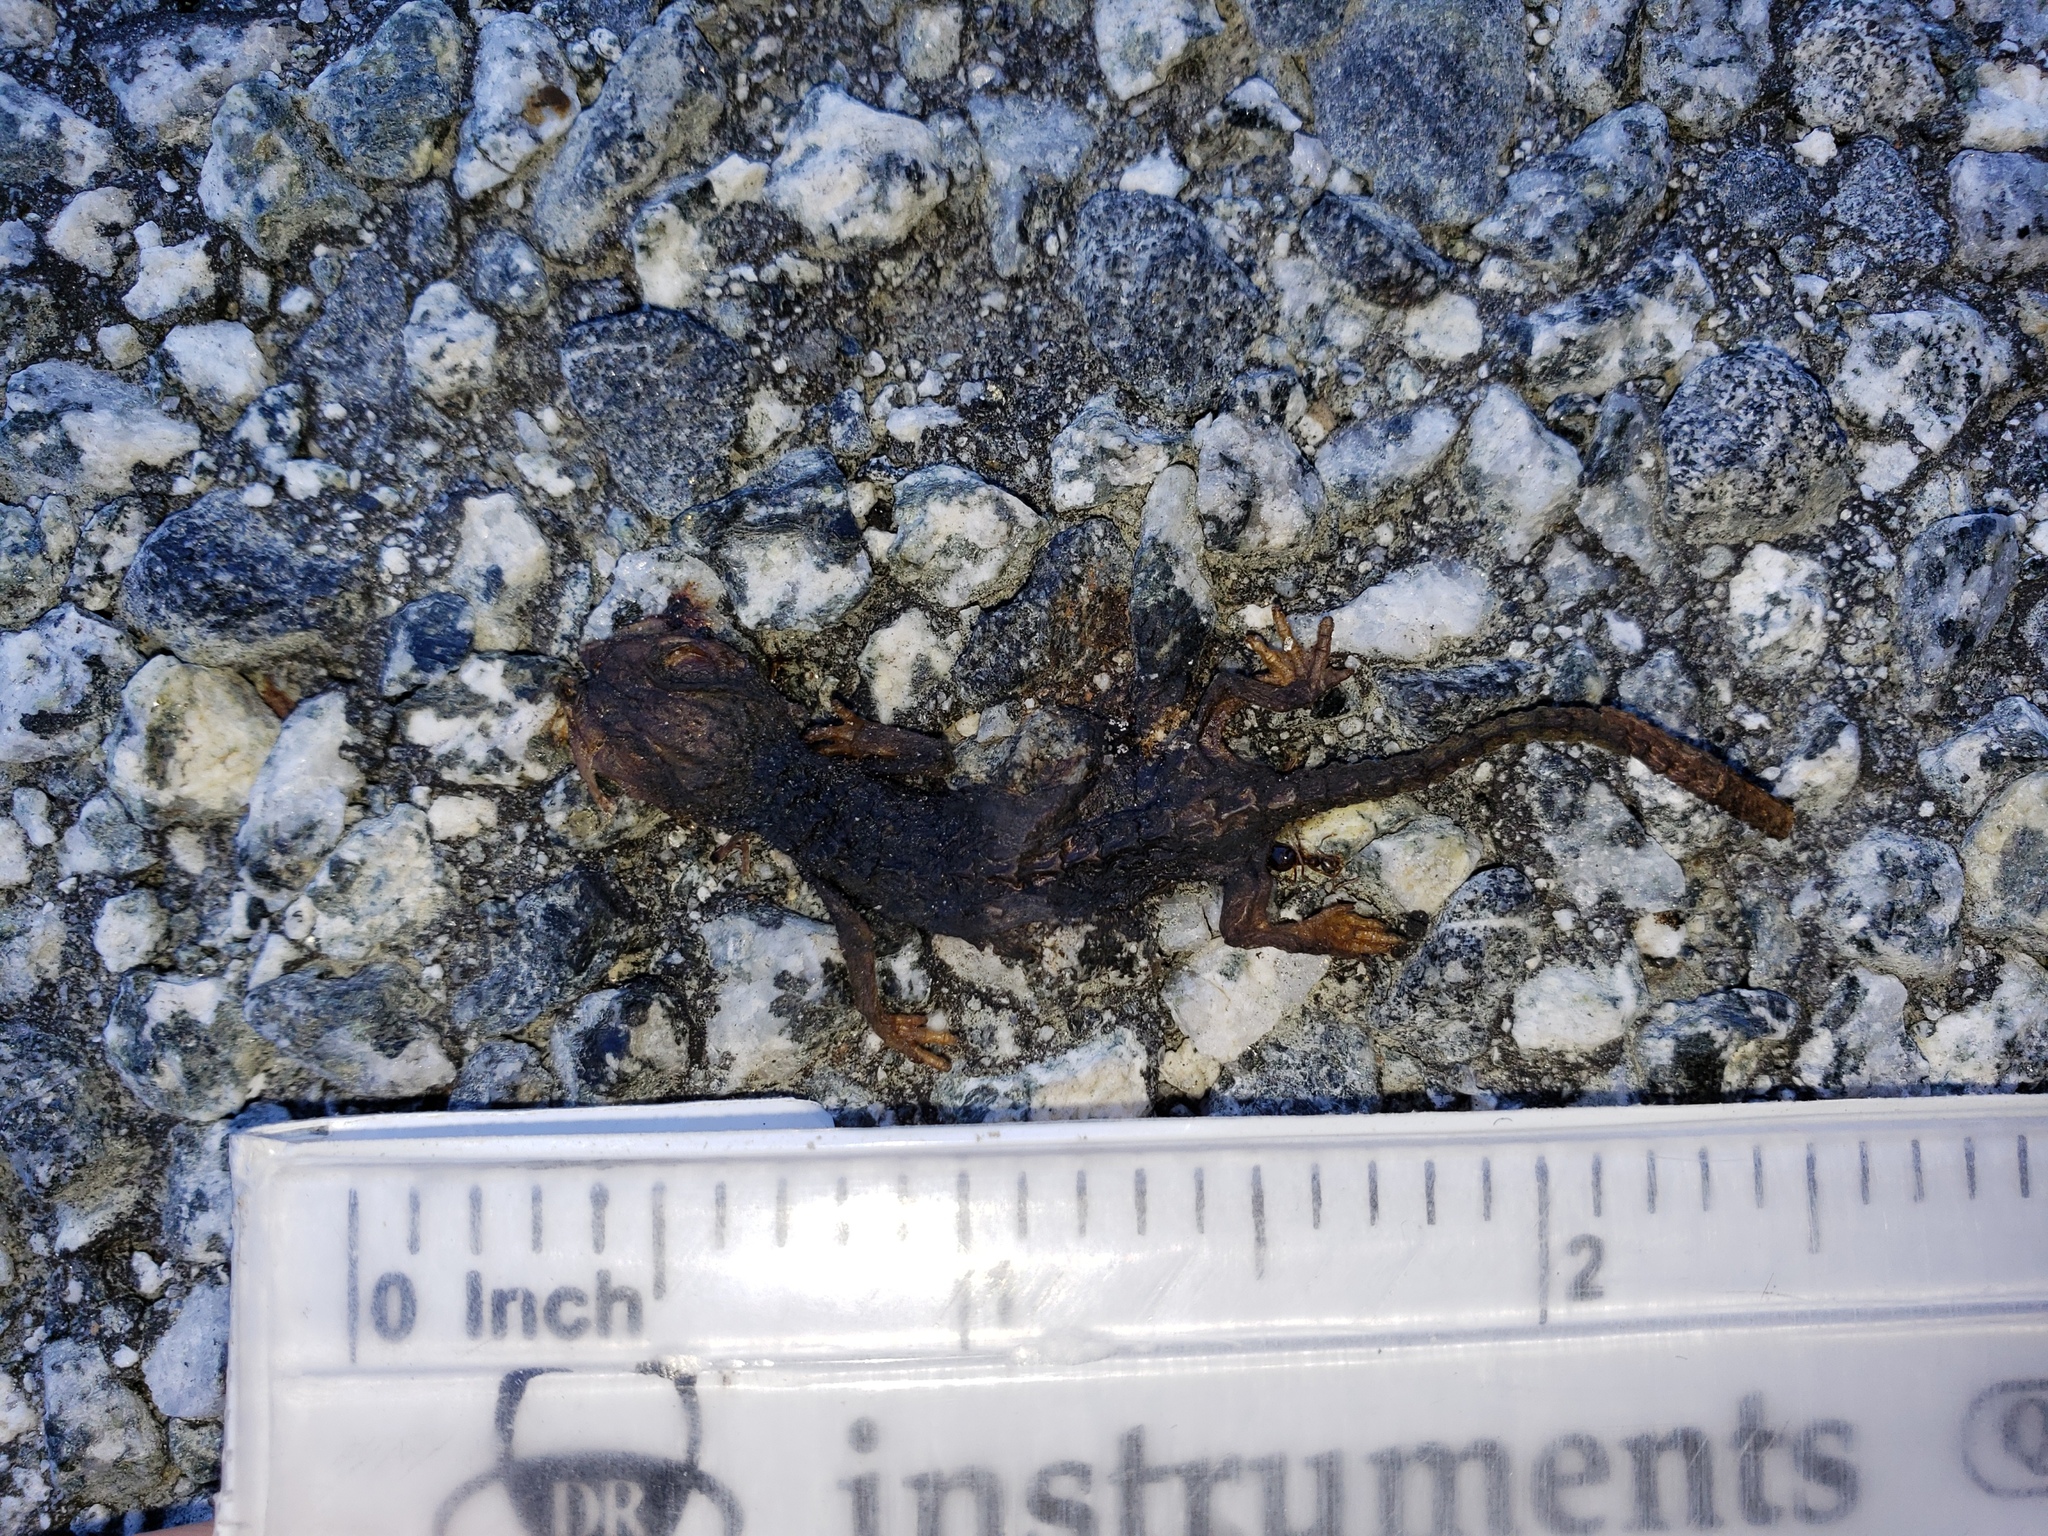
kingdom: Animalia
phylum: Chordata
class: Amphibia
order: Caudata
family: Salamandridae
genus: Taricha
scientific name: Taricha
